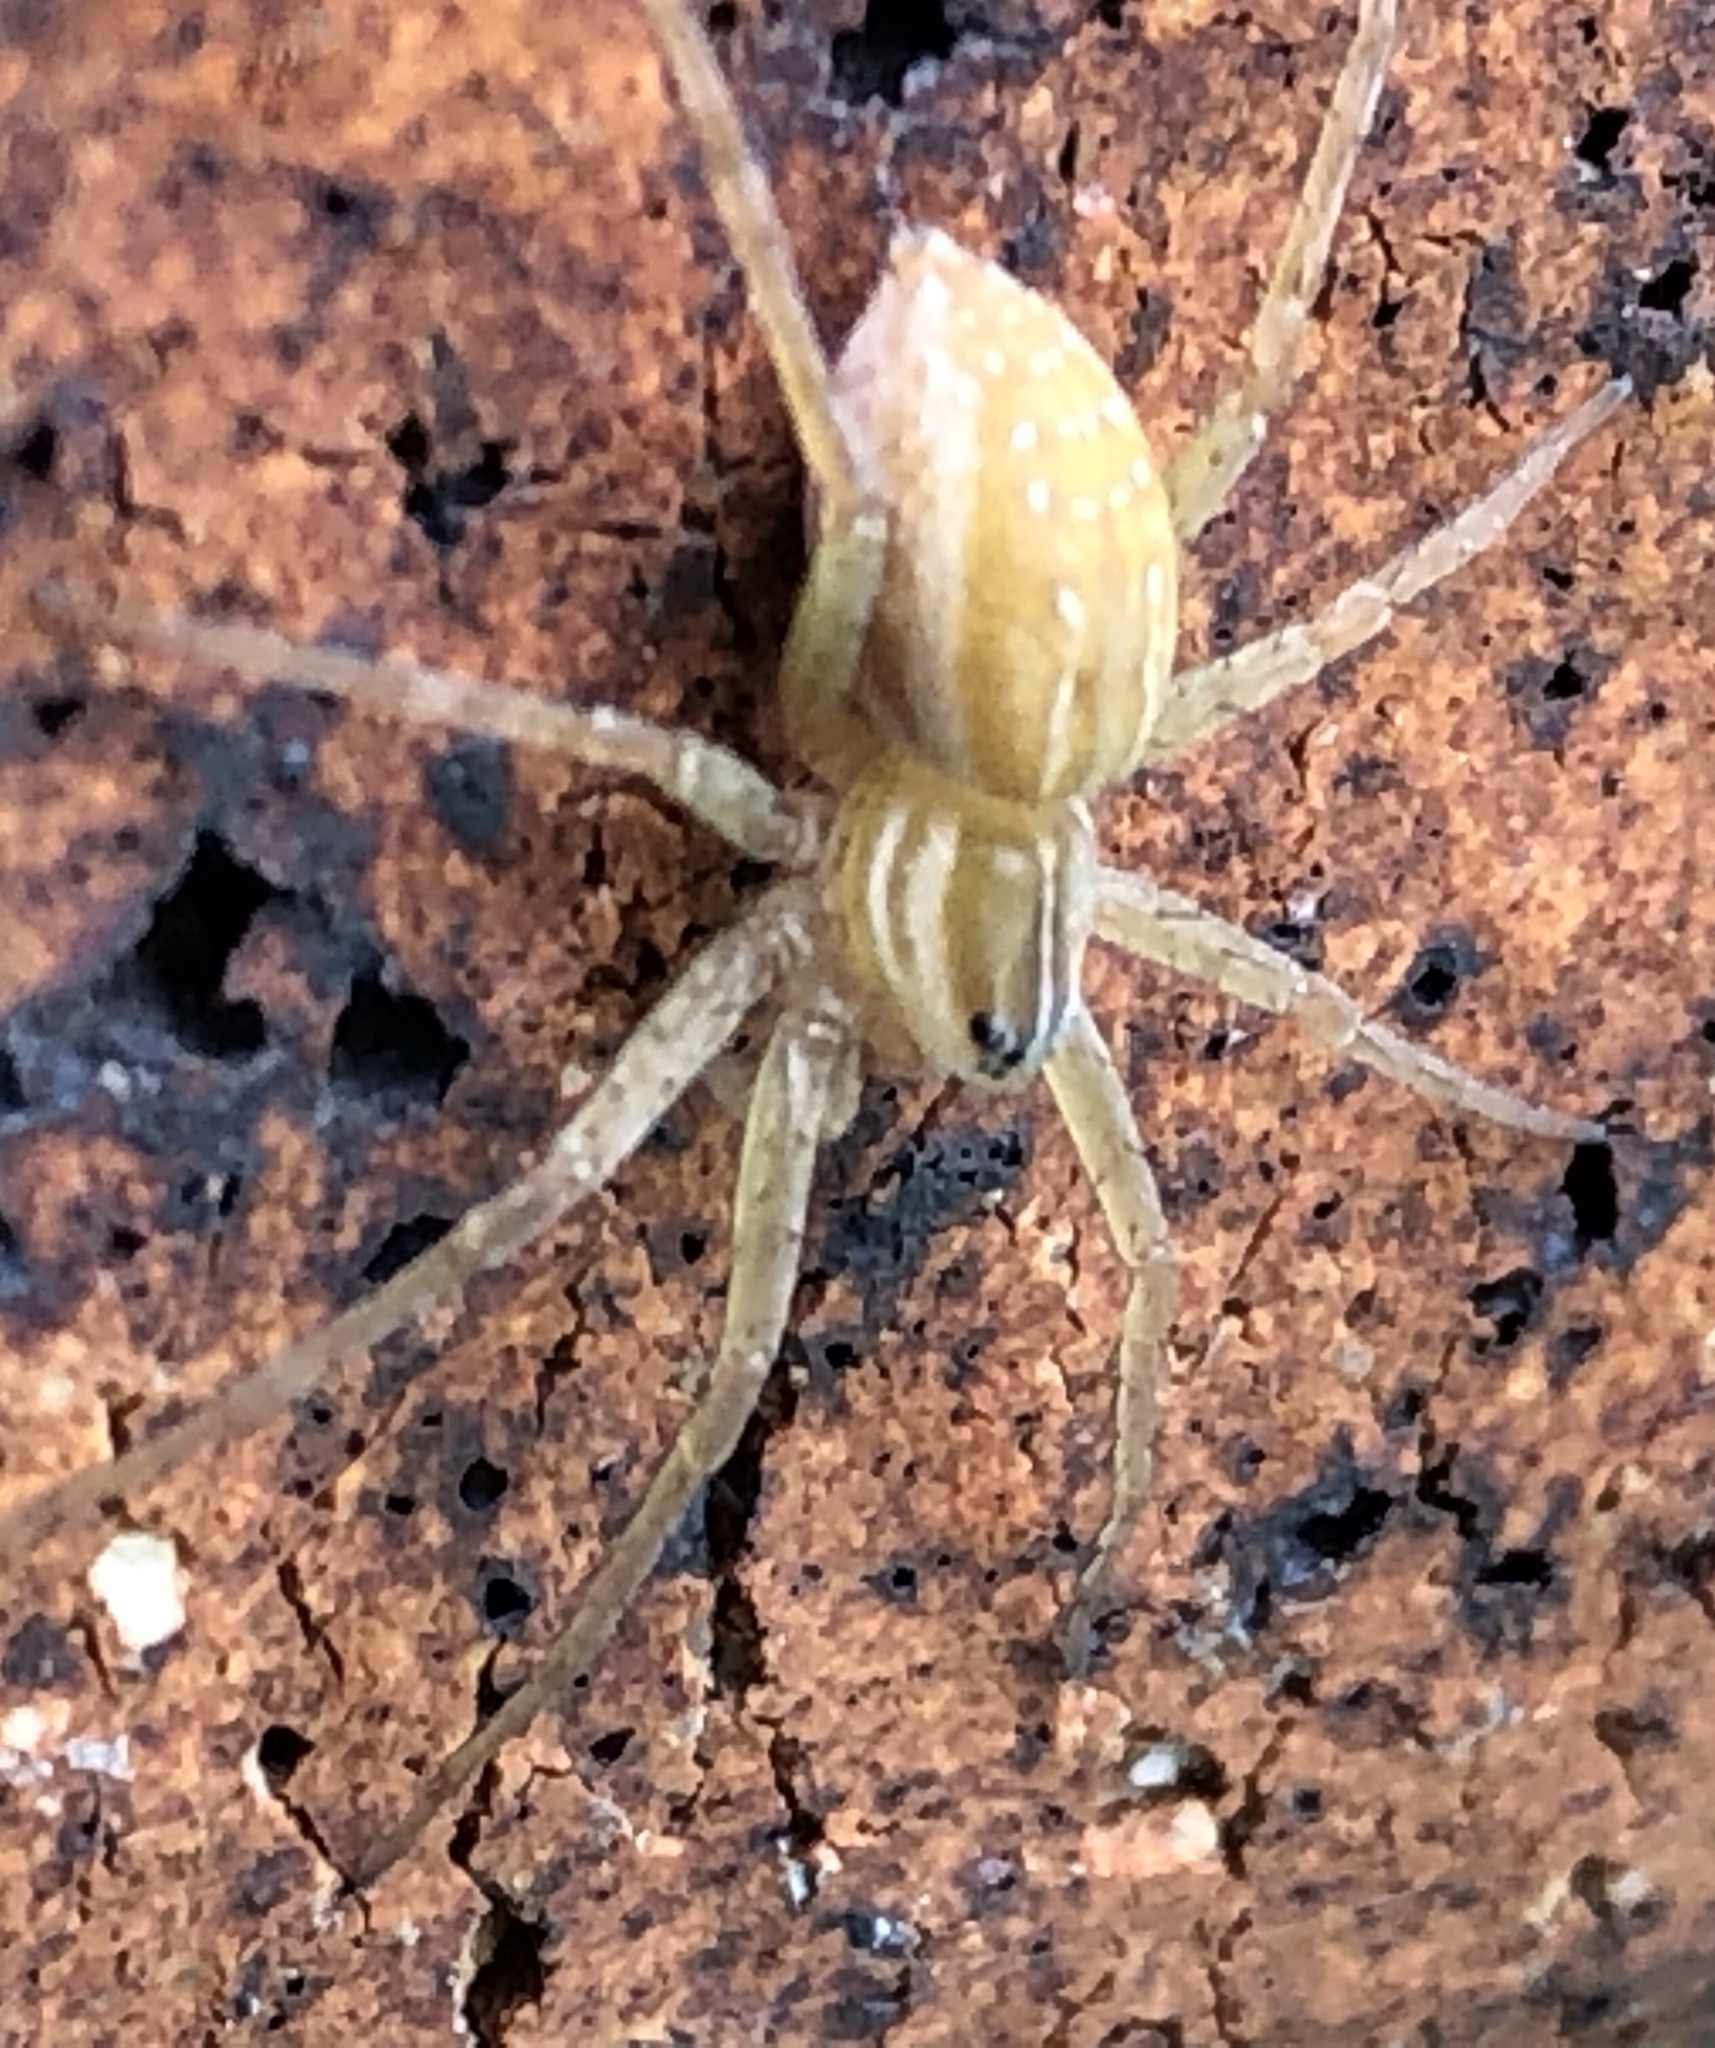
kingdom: Animalia
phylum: Arthropoda
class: Arachnida
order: Araneae
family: Pisauridae
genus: Dolomedes
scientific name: Dolomedes facetus
